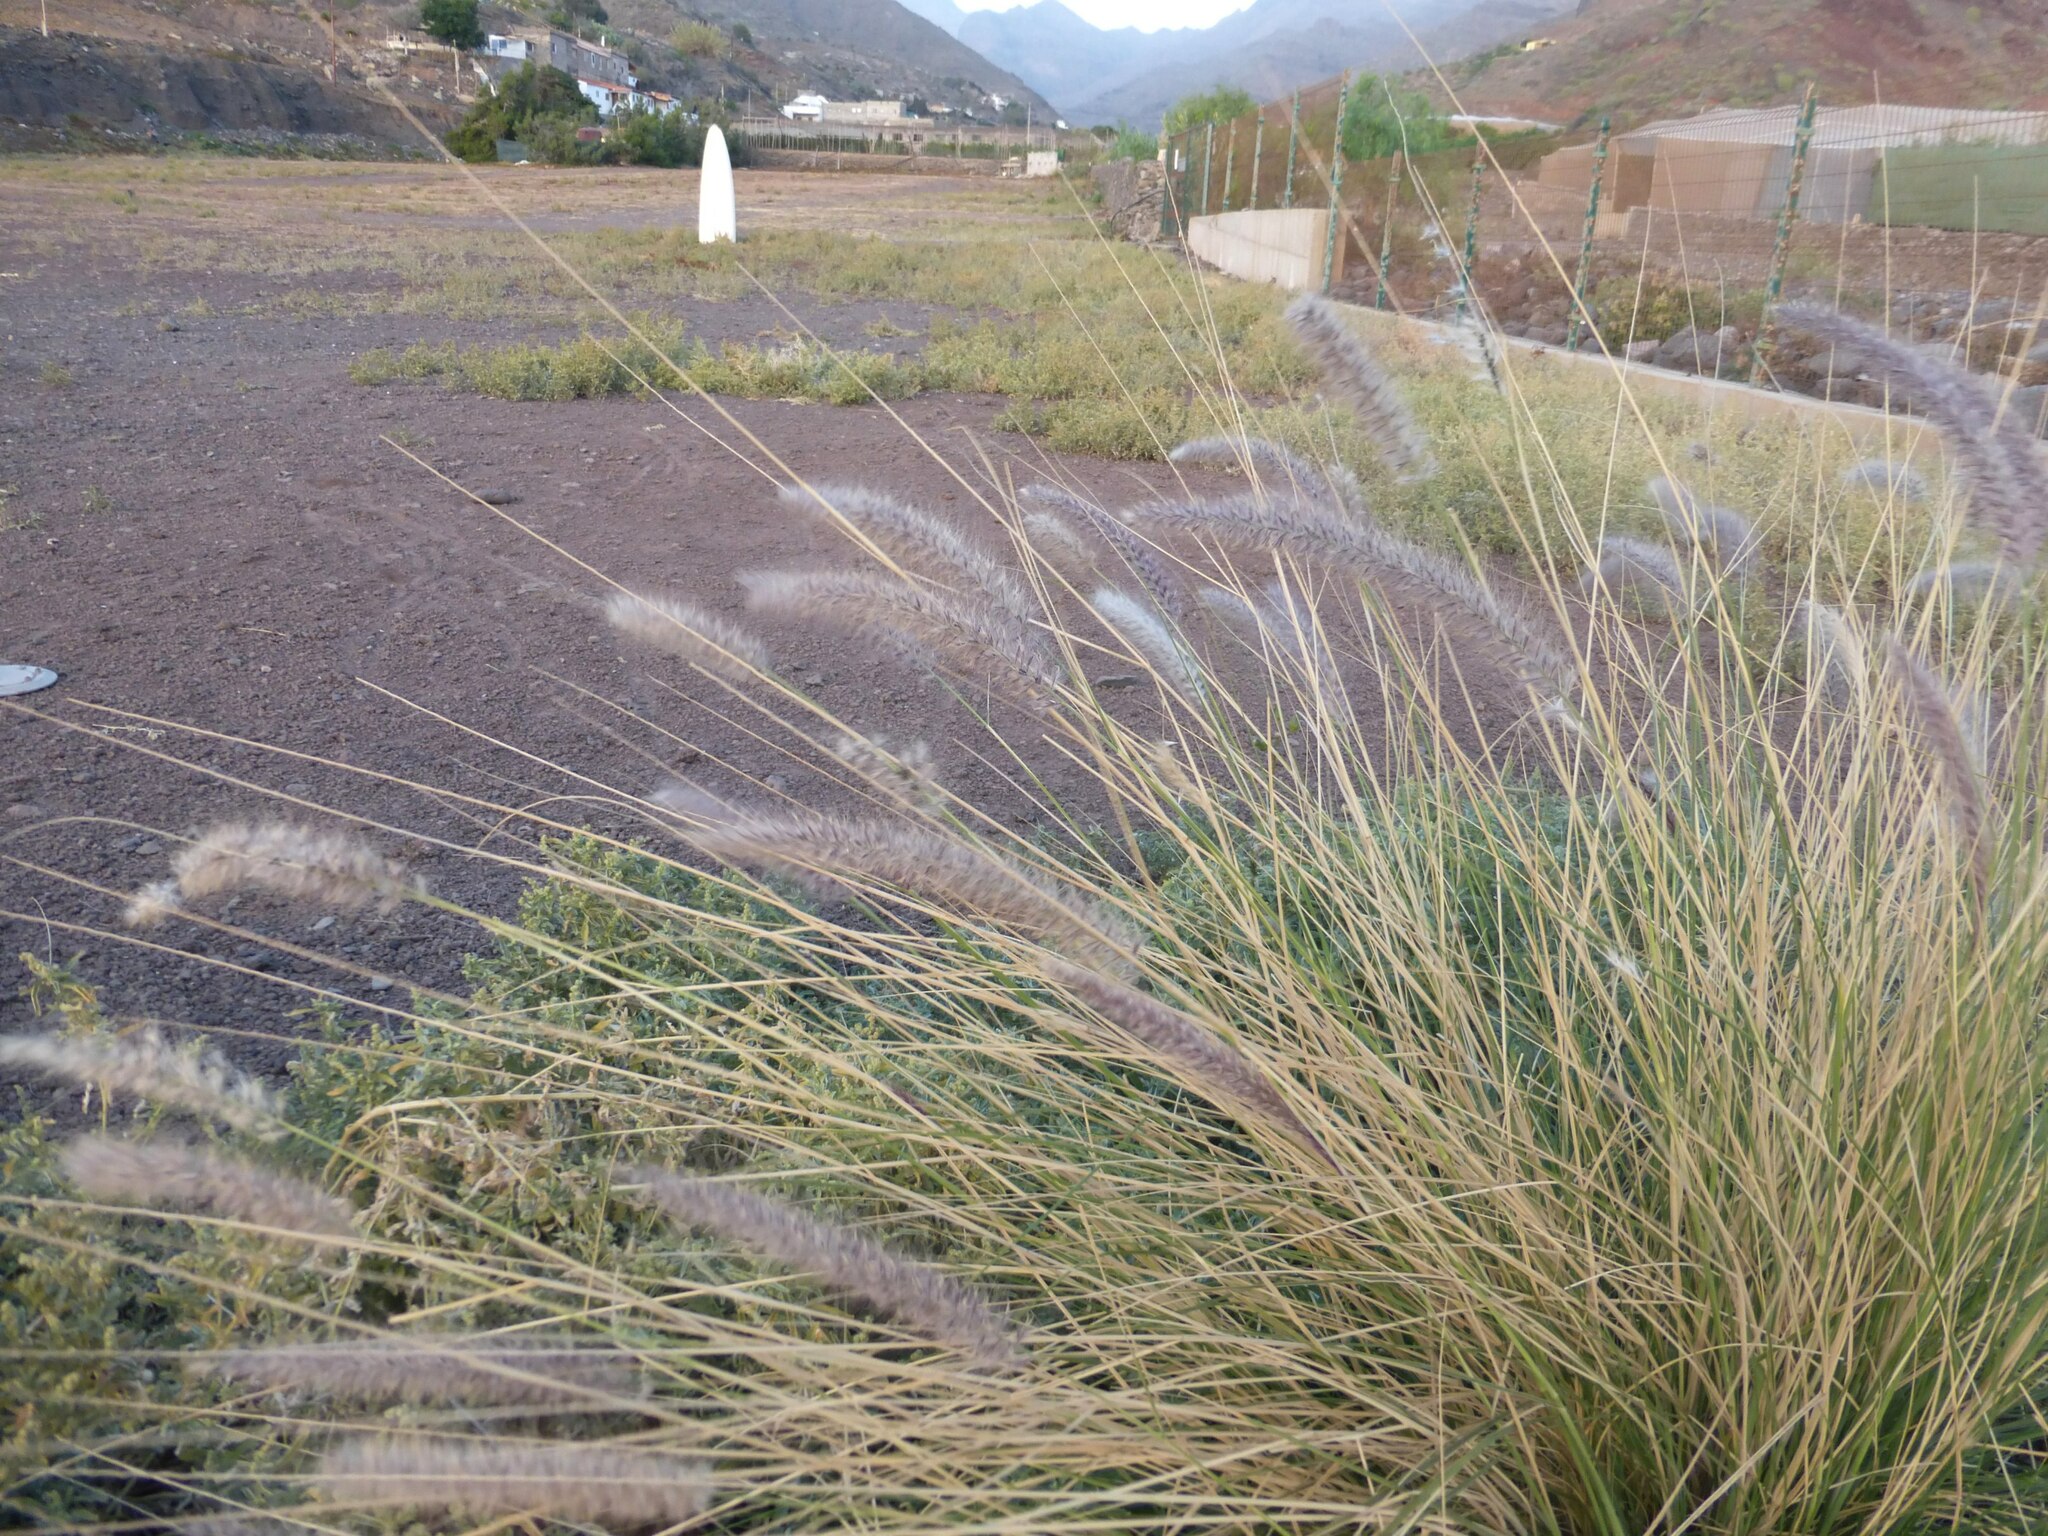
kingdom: Plantae
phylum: Tracheophyta
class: Liliopsida
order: Poales
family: Poaceae
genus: Cenchrus
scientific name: Cenchrus setaceus
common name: Crimson fountaingrass
